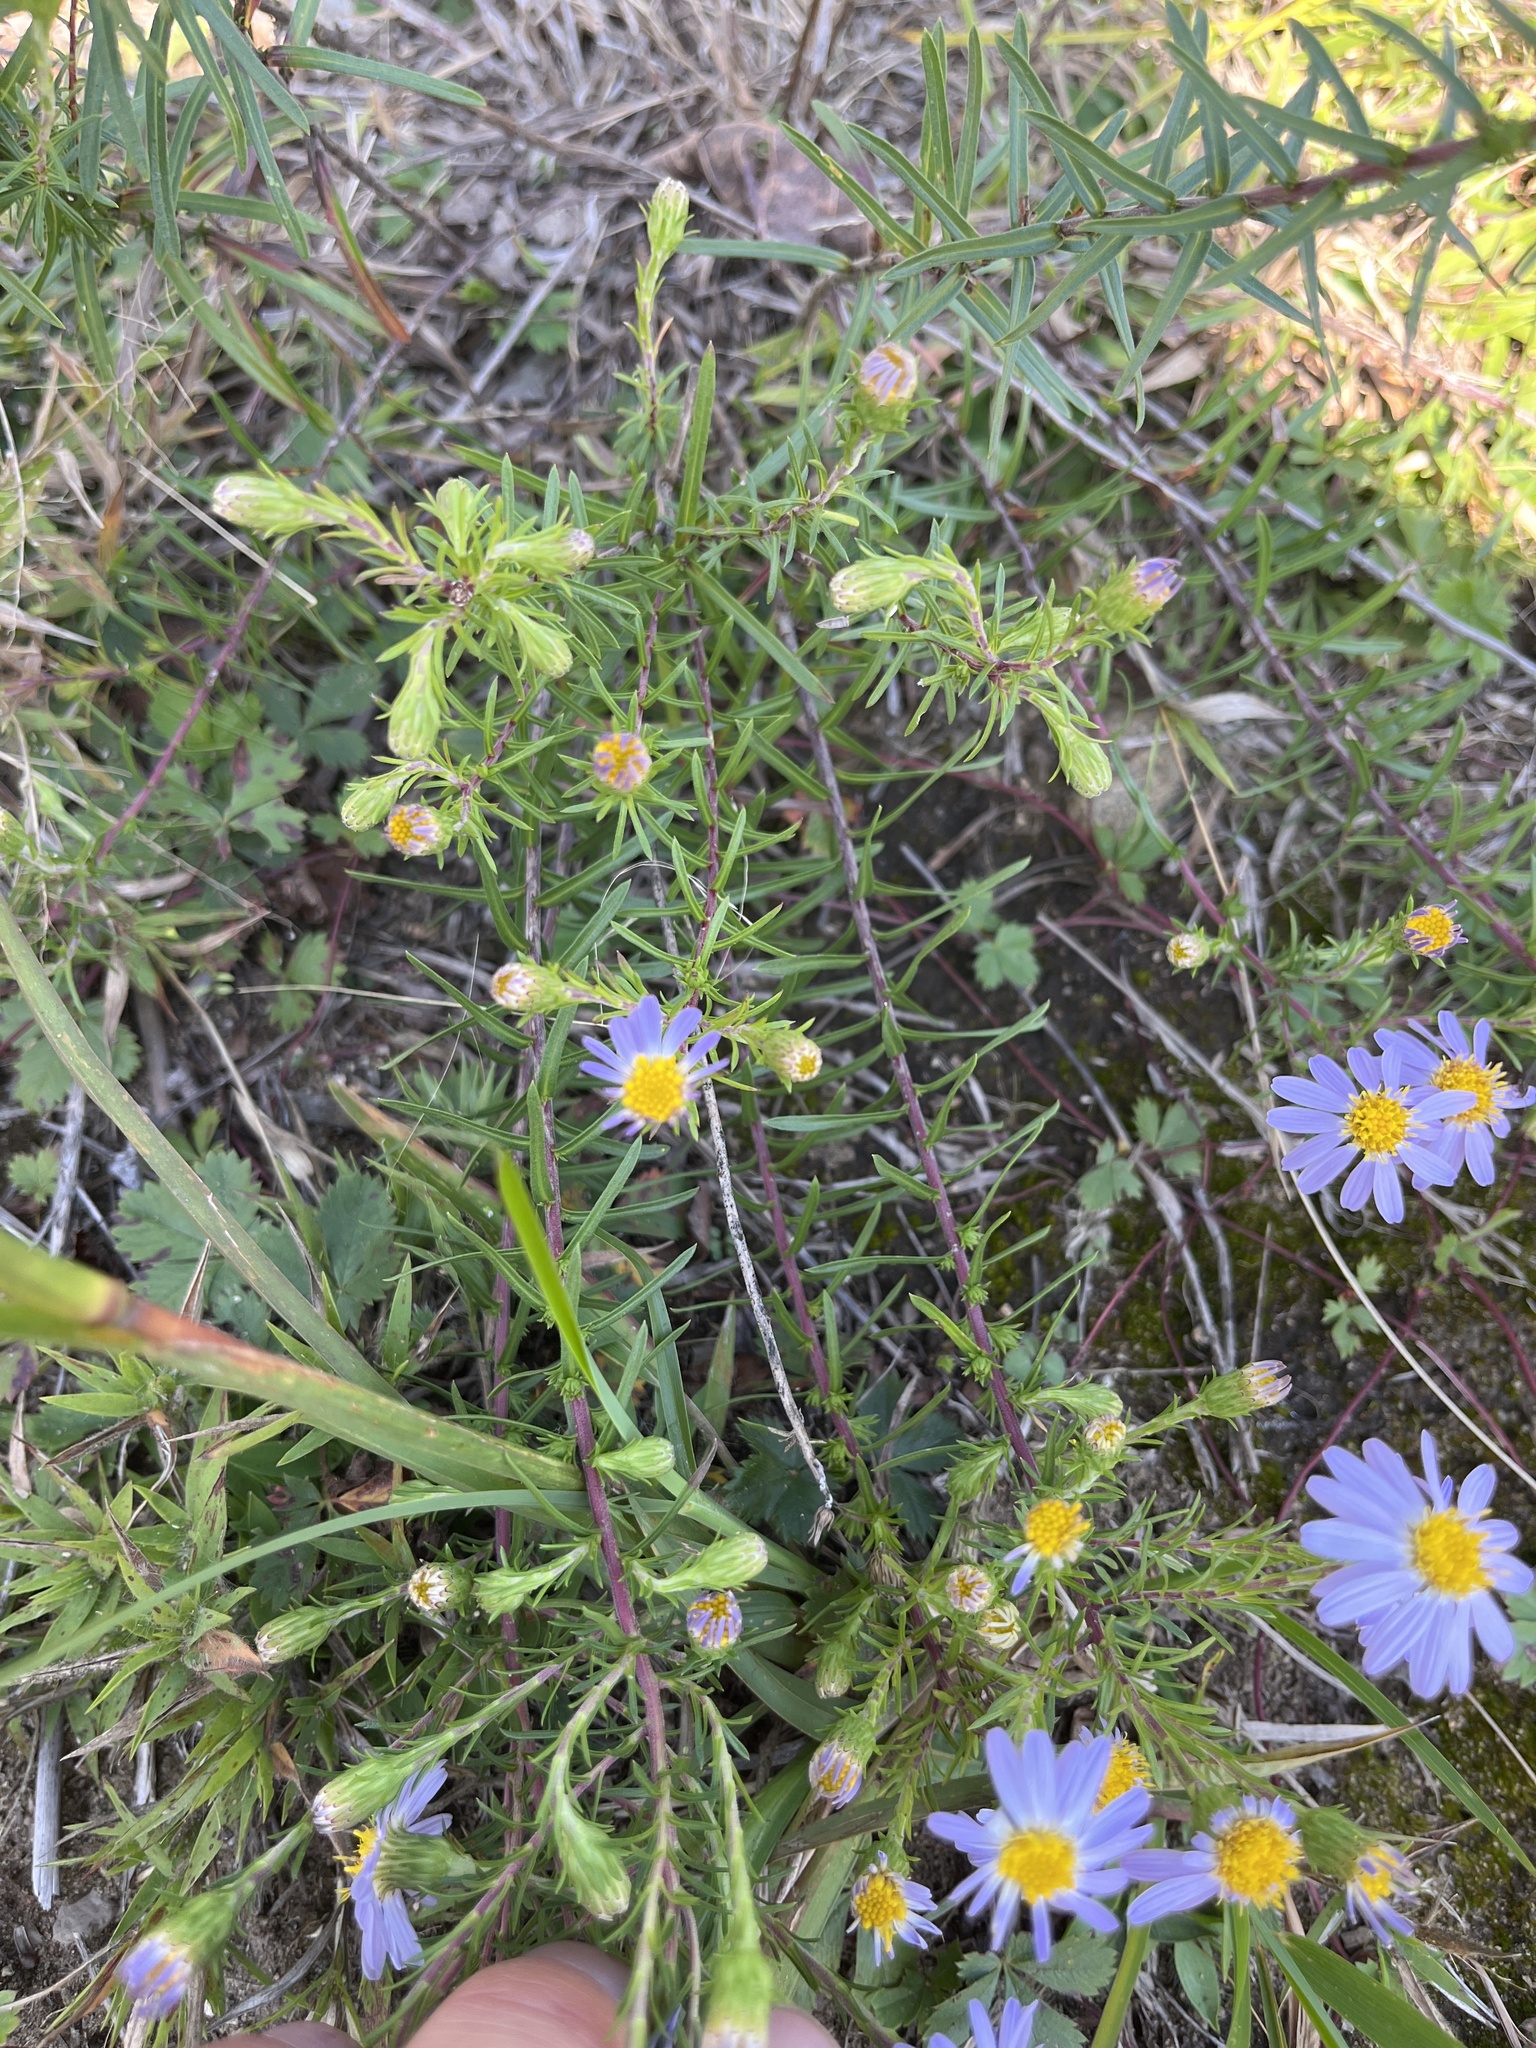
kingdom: Plantae
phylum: Tracheophyta
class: Magnoliopsida
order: Asterales
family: Asteraceae
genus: Ionactis
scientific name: Ionactis linariifolia
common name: Flax-leaf aster
